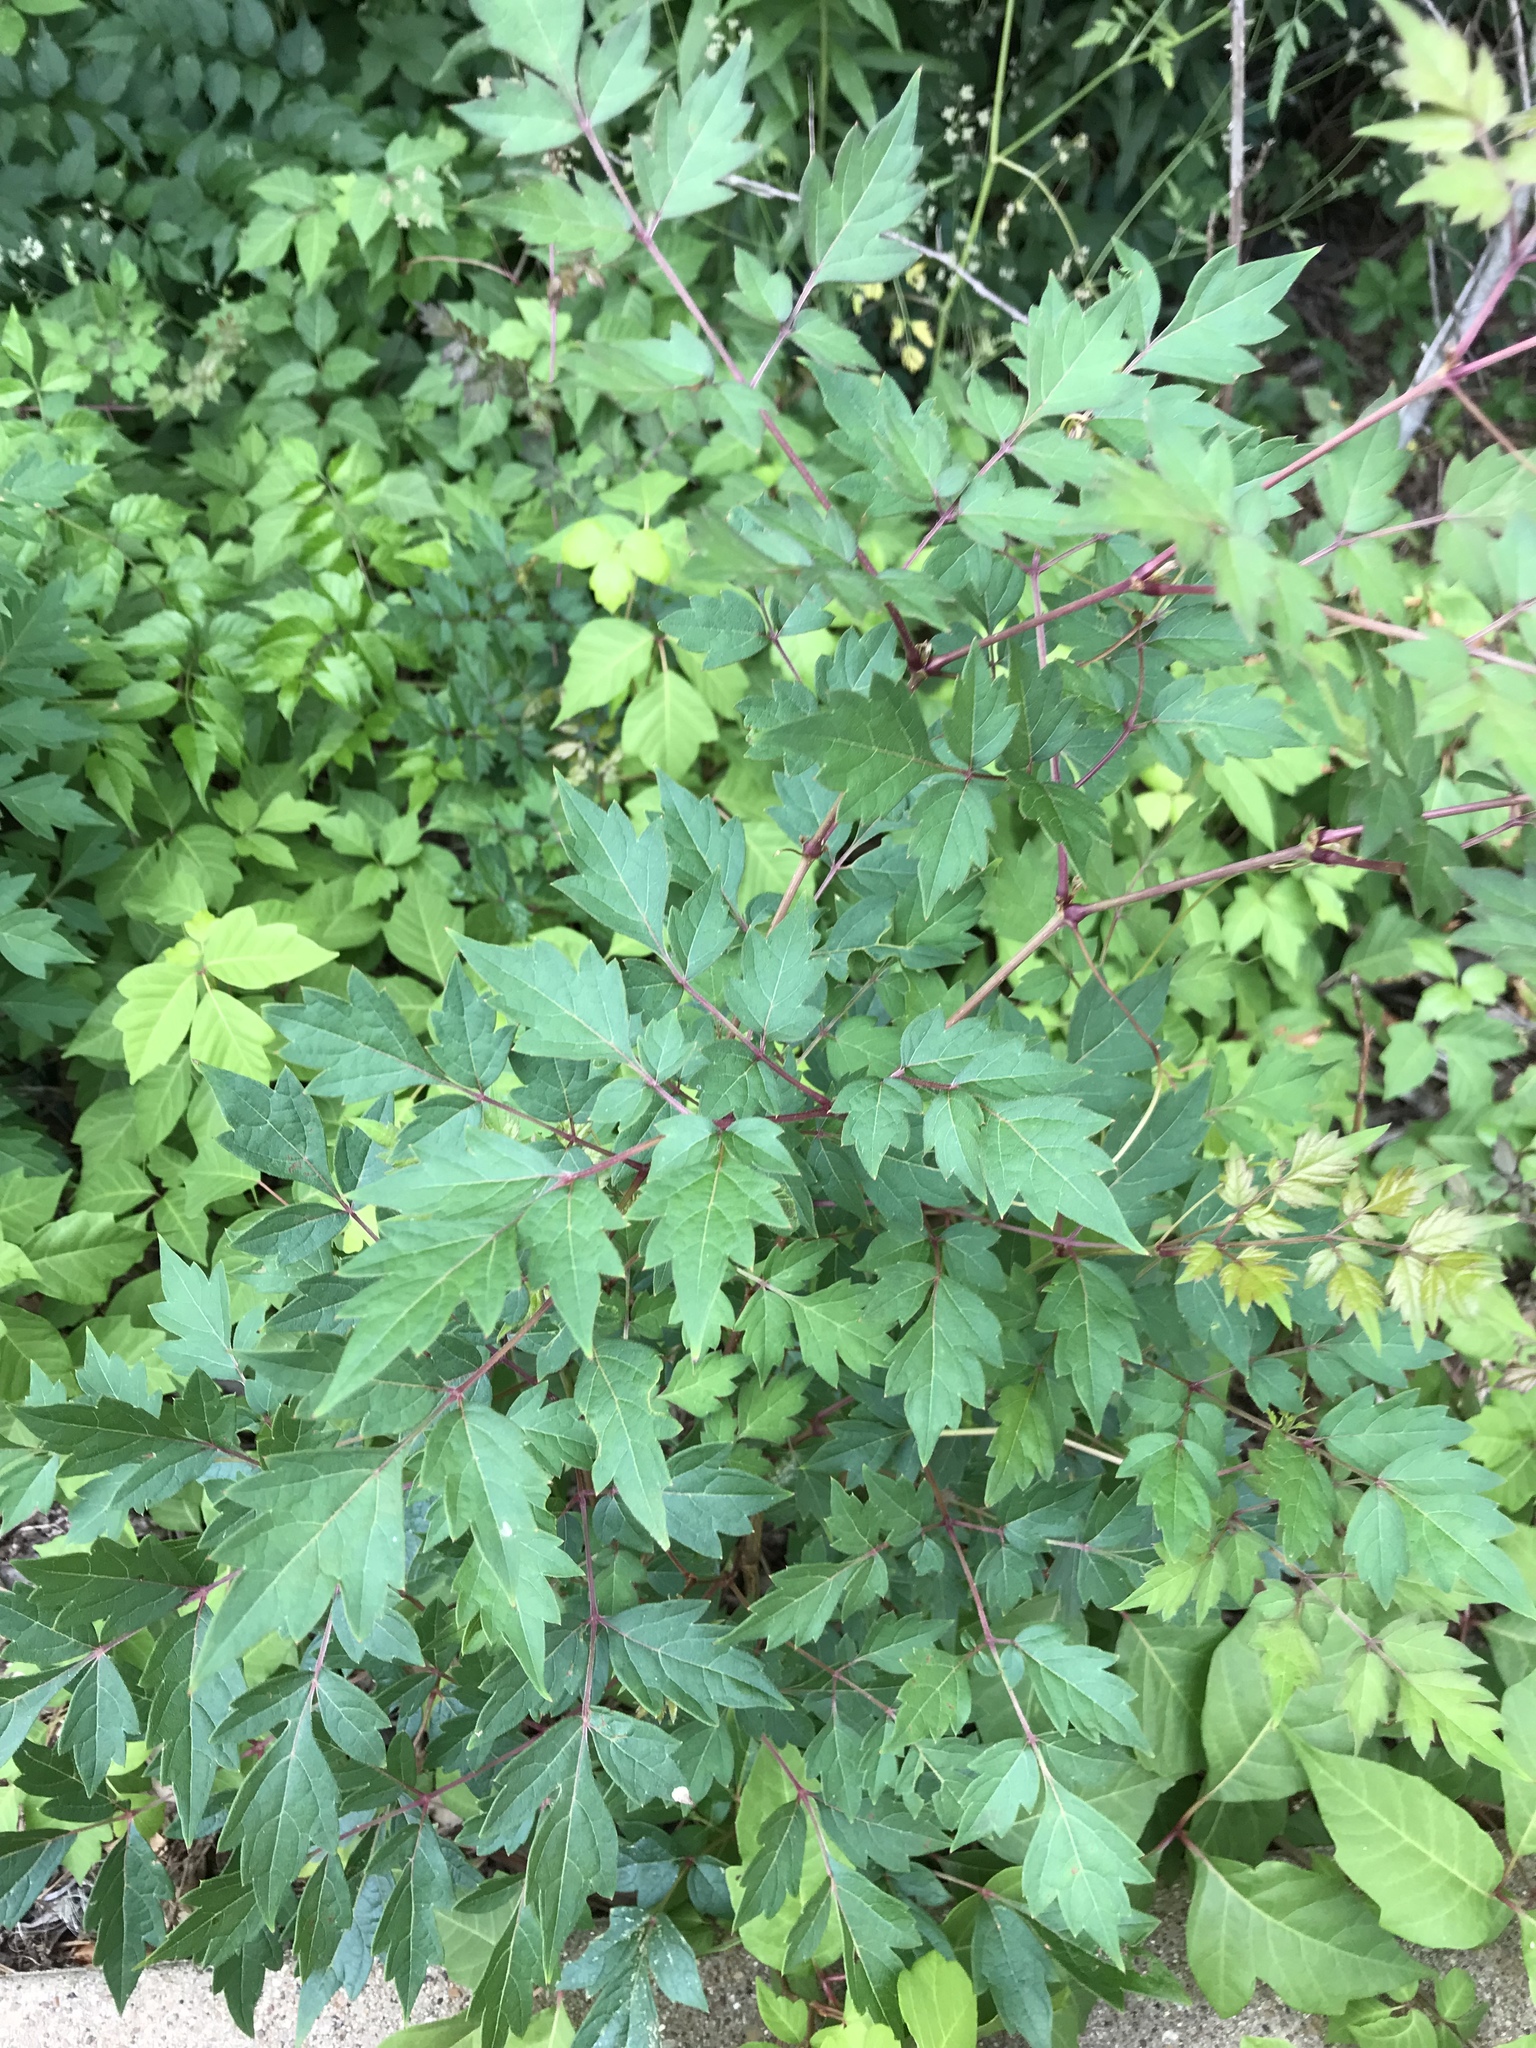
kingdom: Plantae
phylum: Tracheophyta
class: Magnoliopsida
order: Vitales
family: Vitaceae
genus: Nekemias
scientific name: Nekemias arborea
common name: Peppervine
